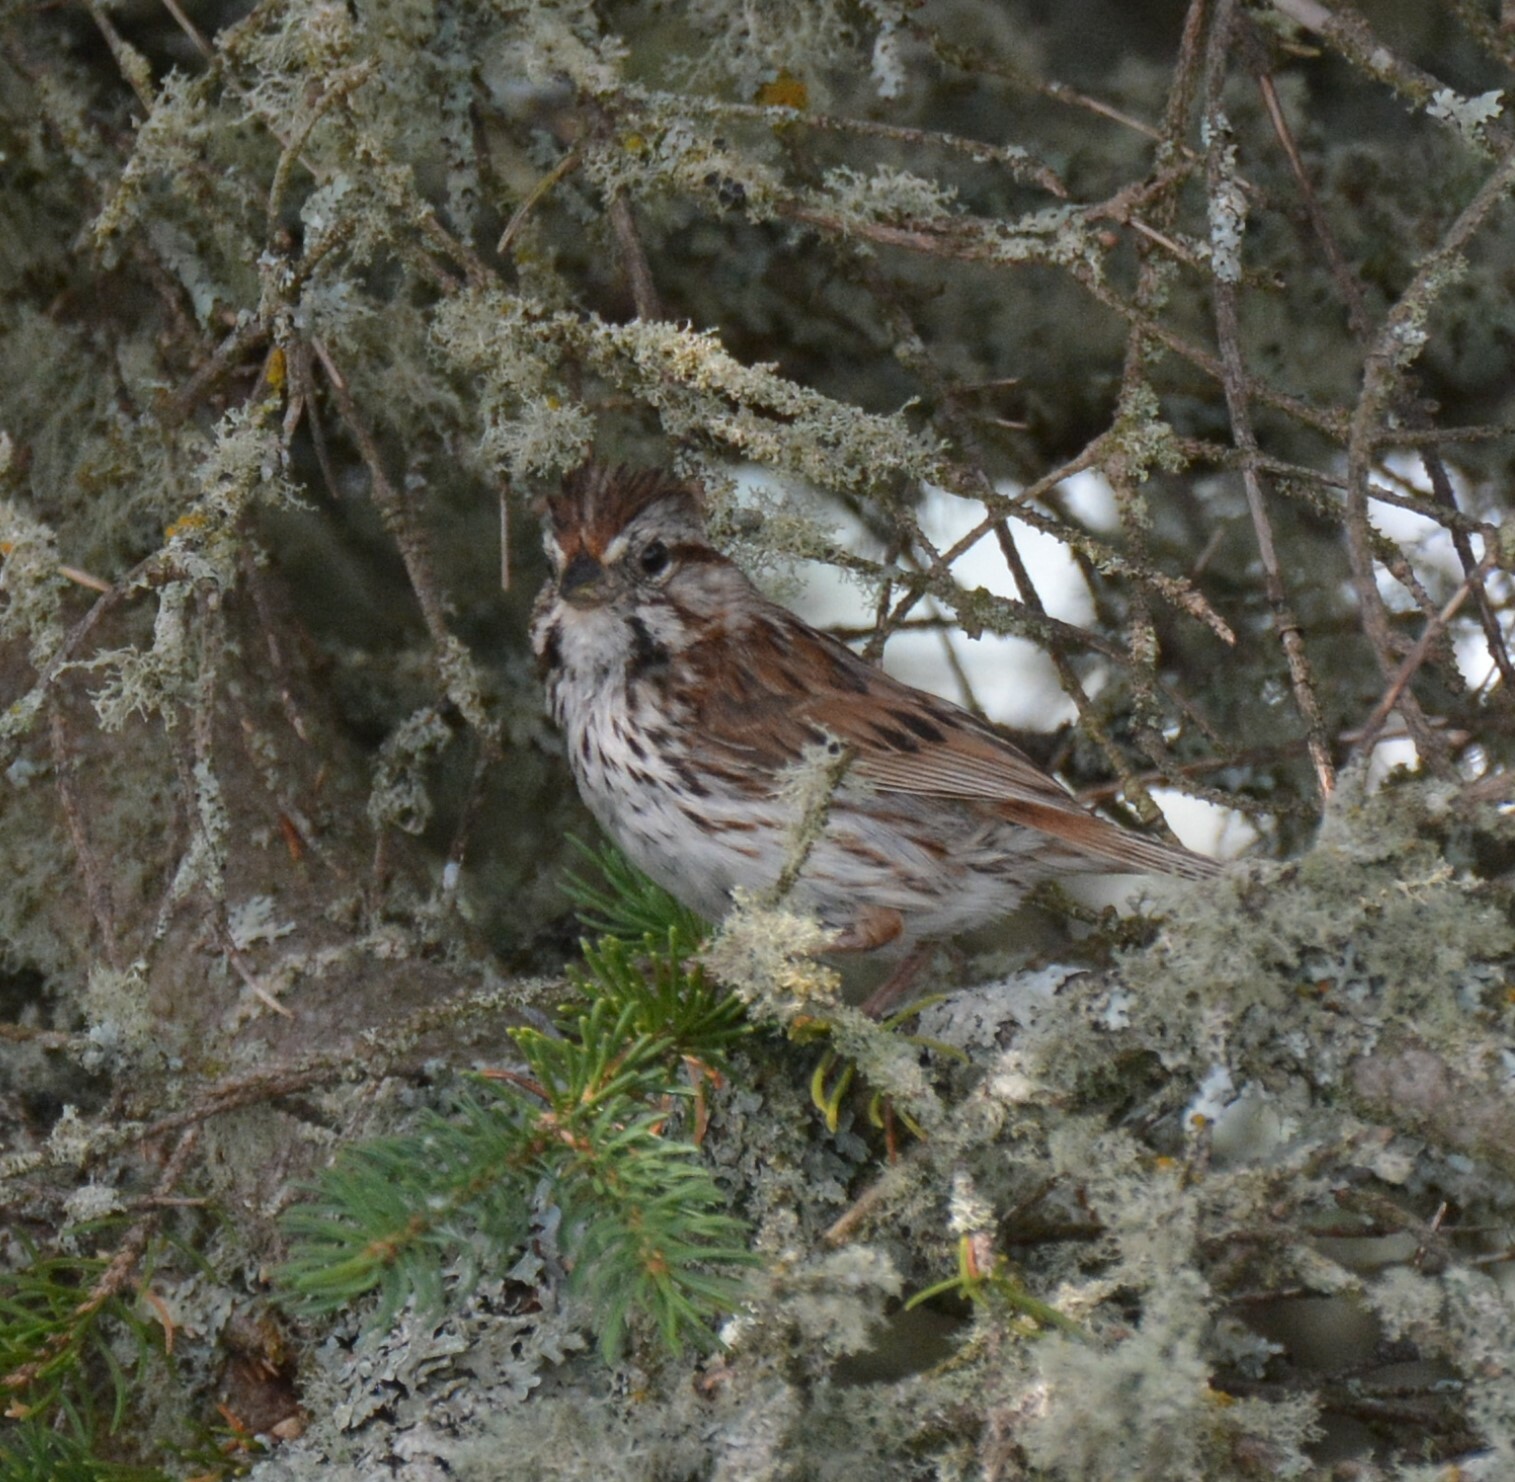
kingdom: Animalia
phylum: Chordata
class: Aves
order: Passeriformes
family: Passerellidae
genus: Melospiza
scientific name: Melospiza melodia
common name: Song sparrow
